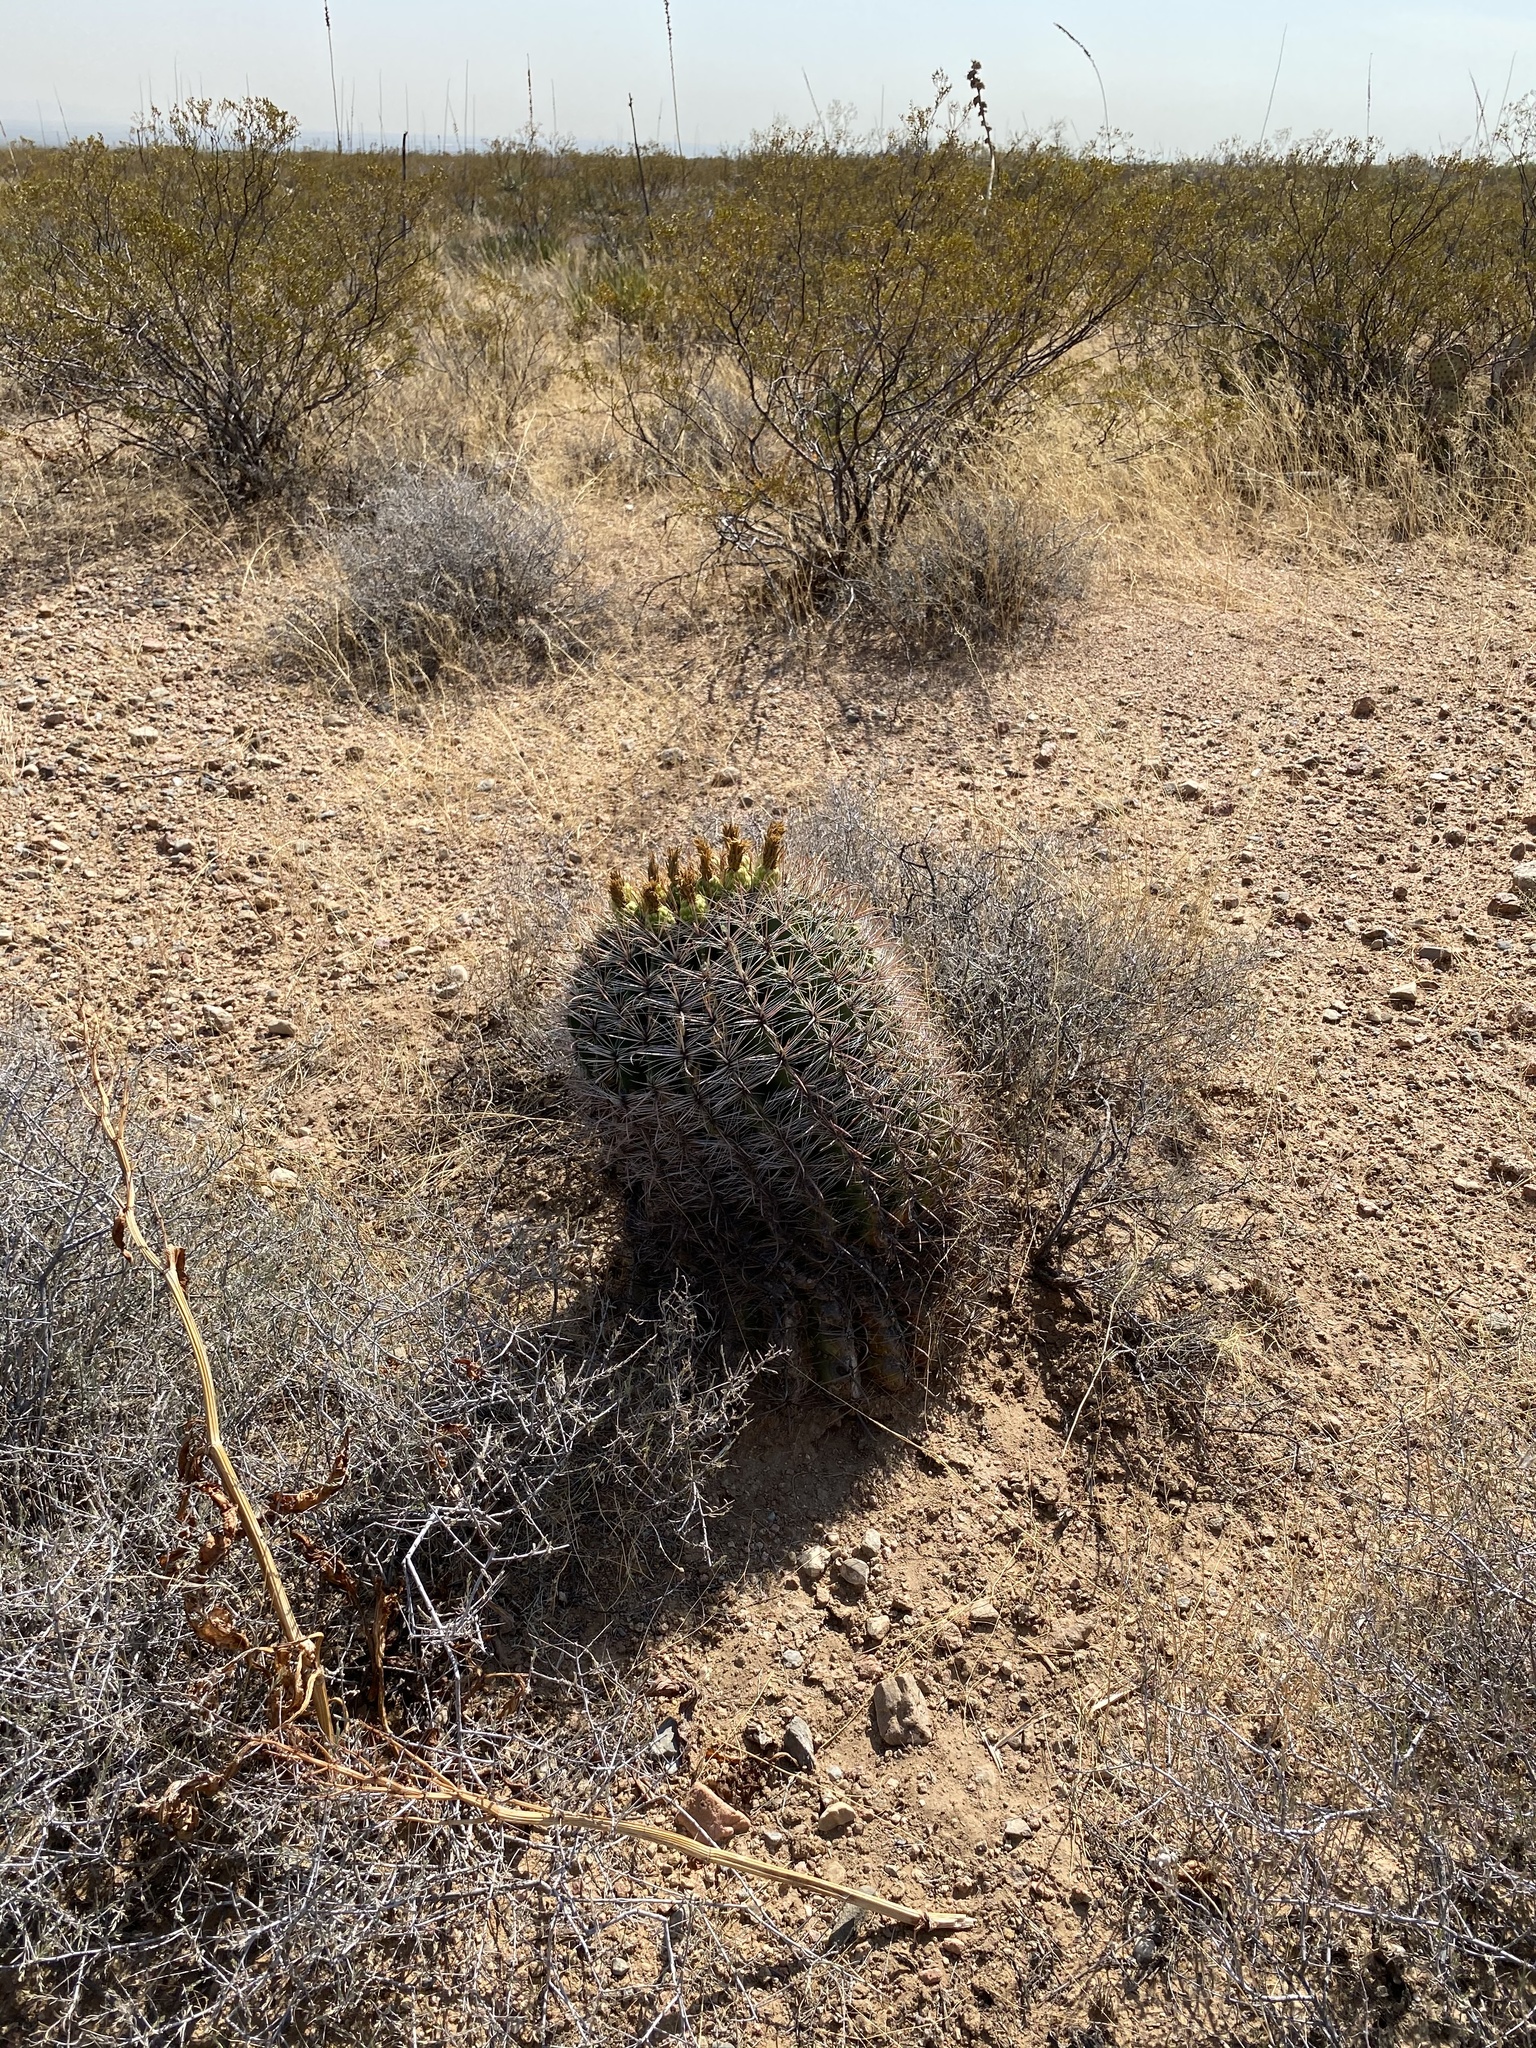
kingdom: Plantae
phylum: Tracheophyta
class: Magnoliopsida
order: Caryophyllales
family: Cactaceae
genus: Ferocactus
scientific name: Ferocactus wislizeni
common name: Candy barrel cactus
